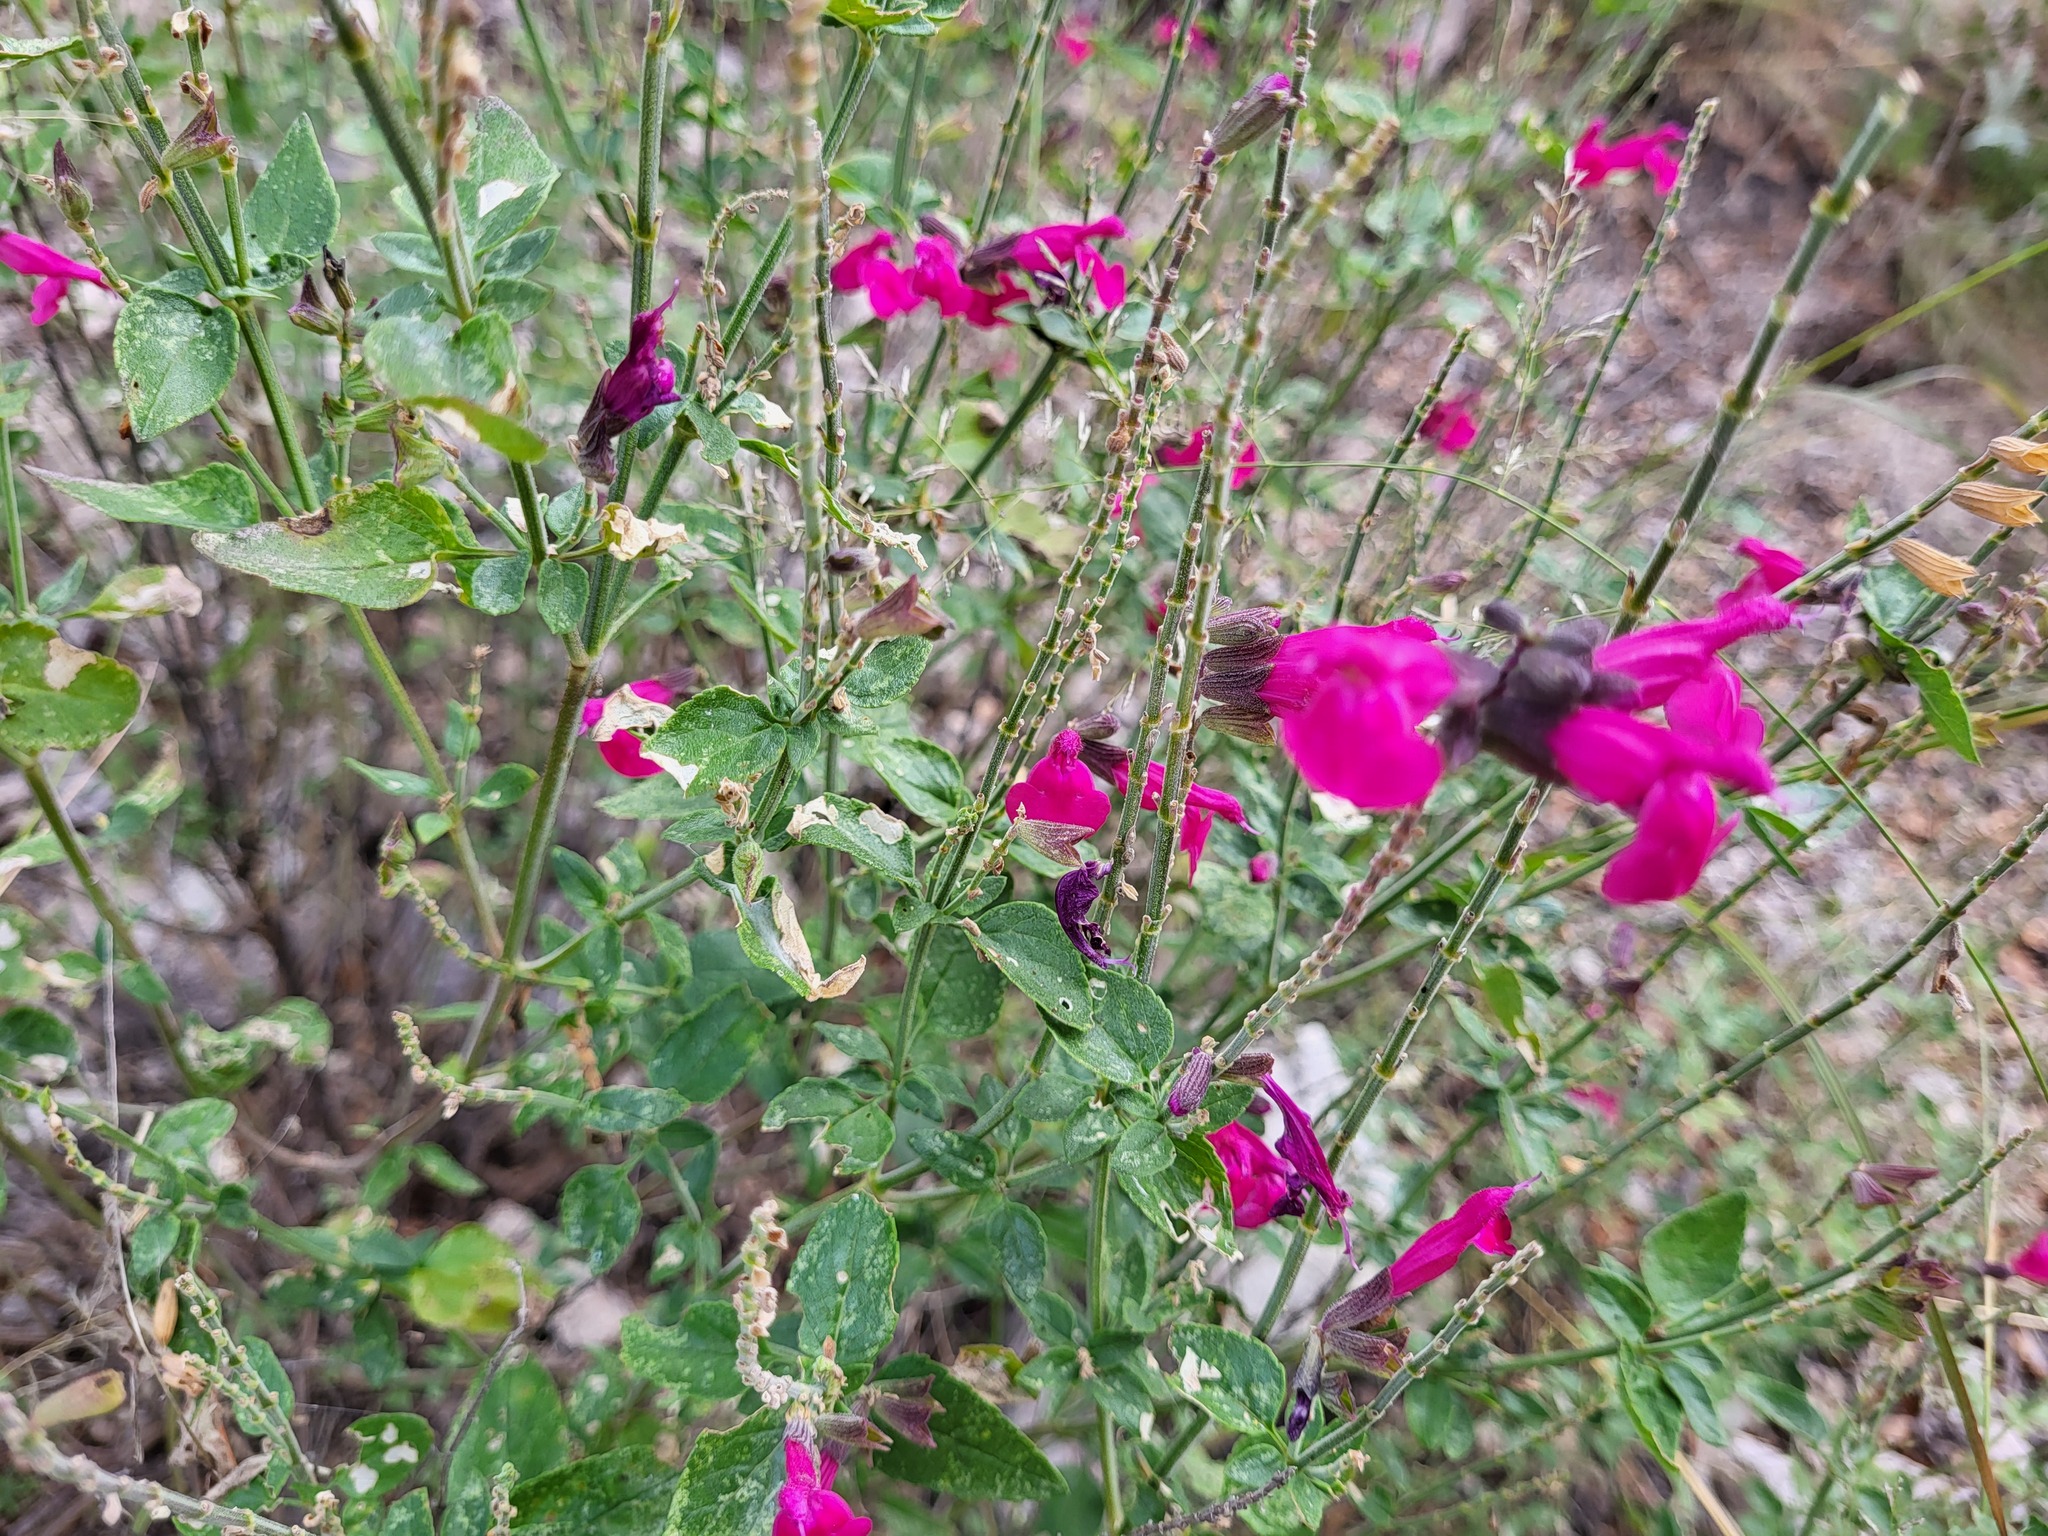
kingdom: Plantae
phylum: Tracheophyta
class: Magnoliopsida
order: Lamiales
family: Lamiaceae
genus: Salvia
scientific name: Salvia microphylla
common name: Baby sage
